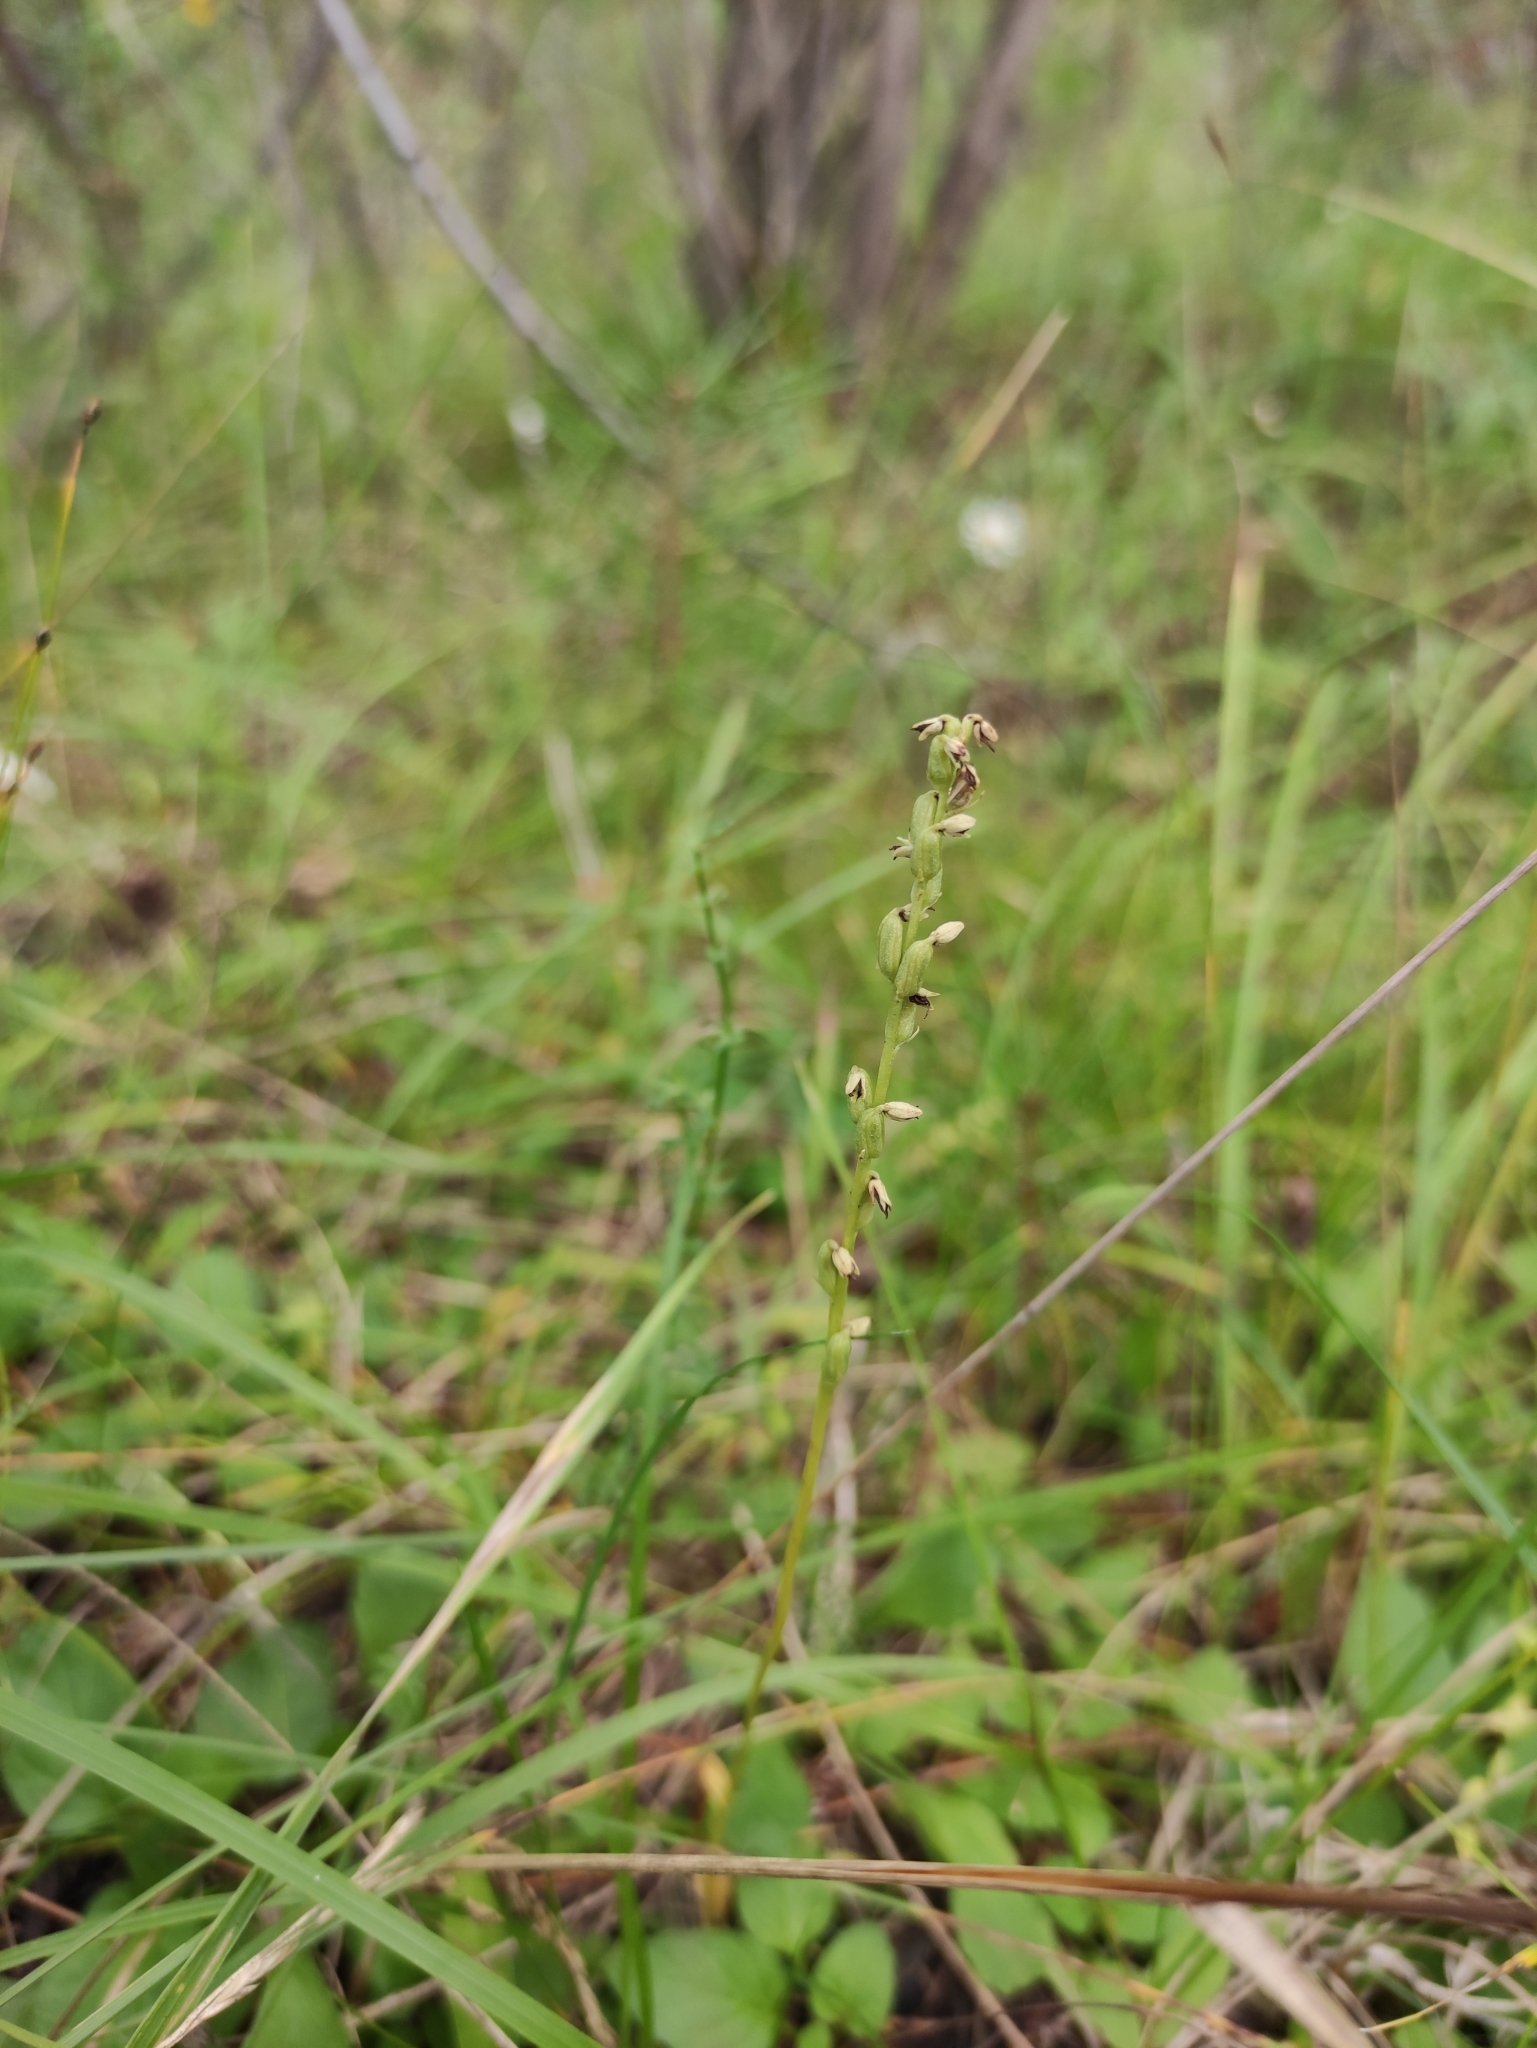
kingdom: Plantae
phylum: Tracheophyta
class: Liliopsida
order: Asparagales
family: Orchidaceae
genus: Herminium
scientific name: Herminium monorchis
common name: Musk orchid
